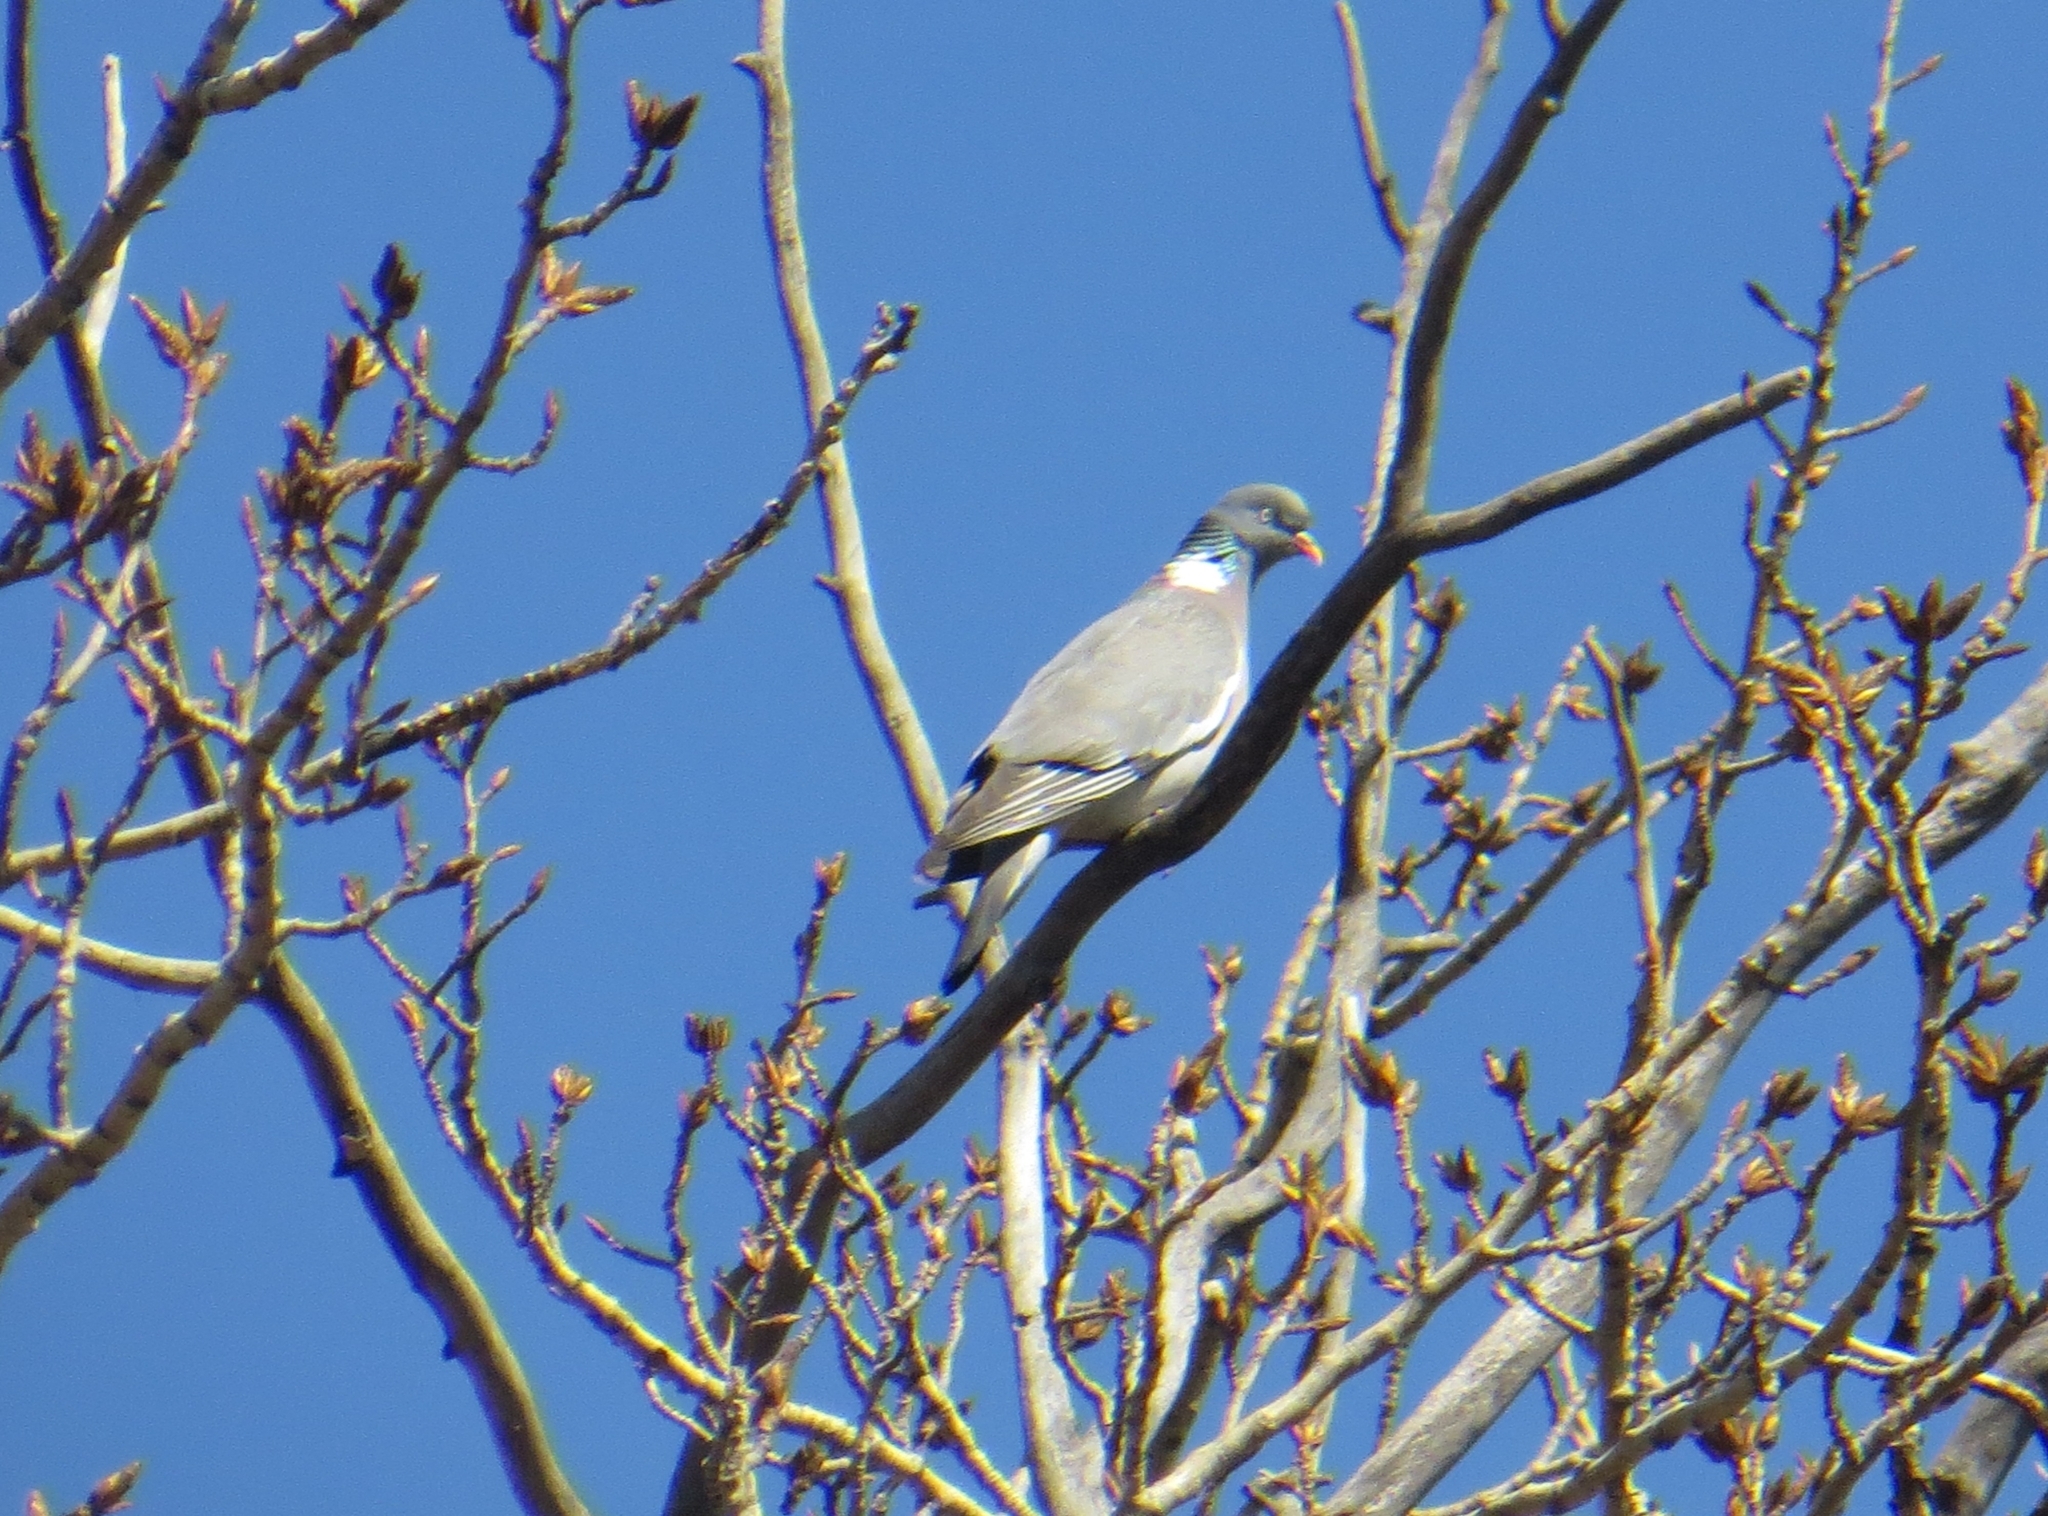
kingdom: Animalia
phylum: Chordata
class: Aves
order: Columbiformes
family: Columbidae
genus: Columba
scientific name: Columba palumbus
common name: Common wood pigeon
